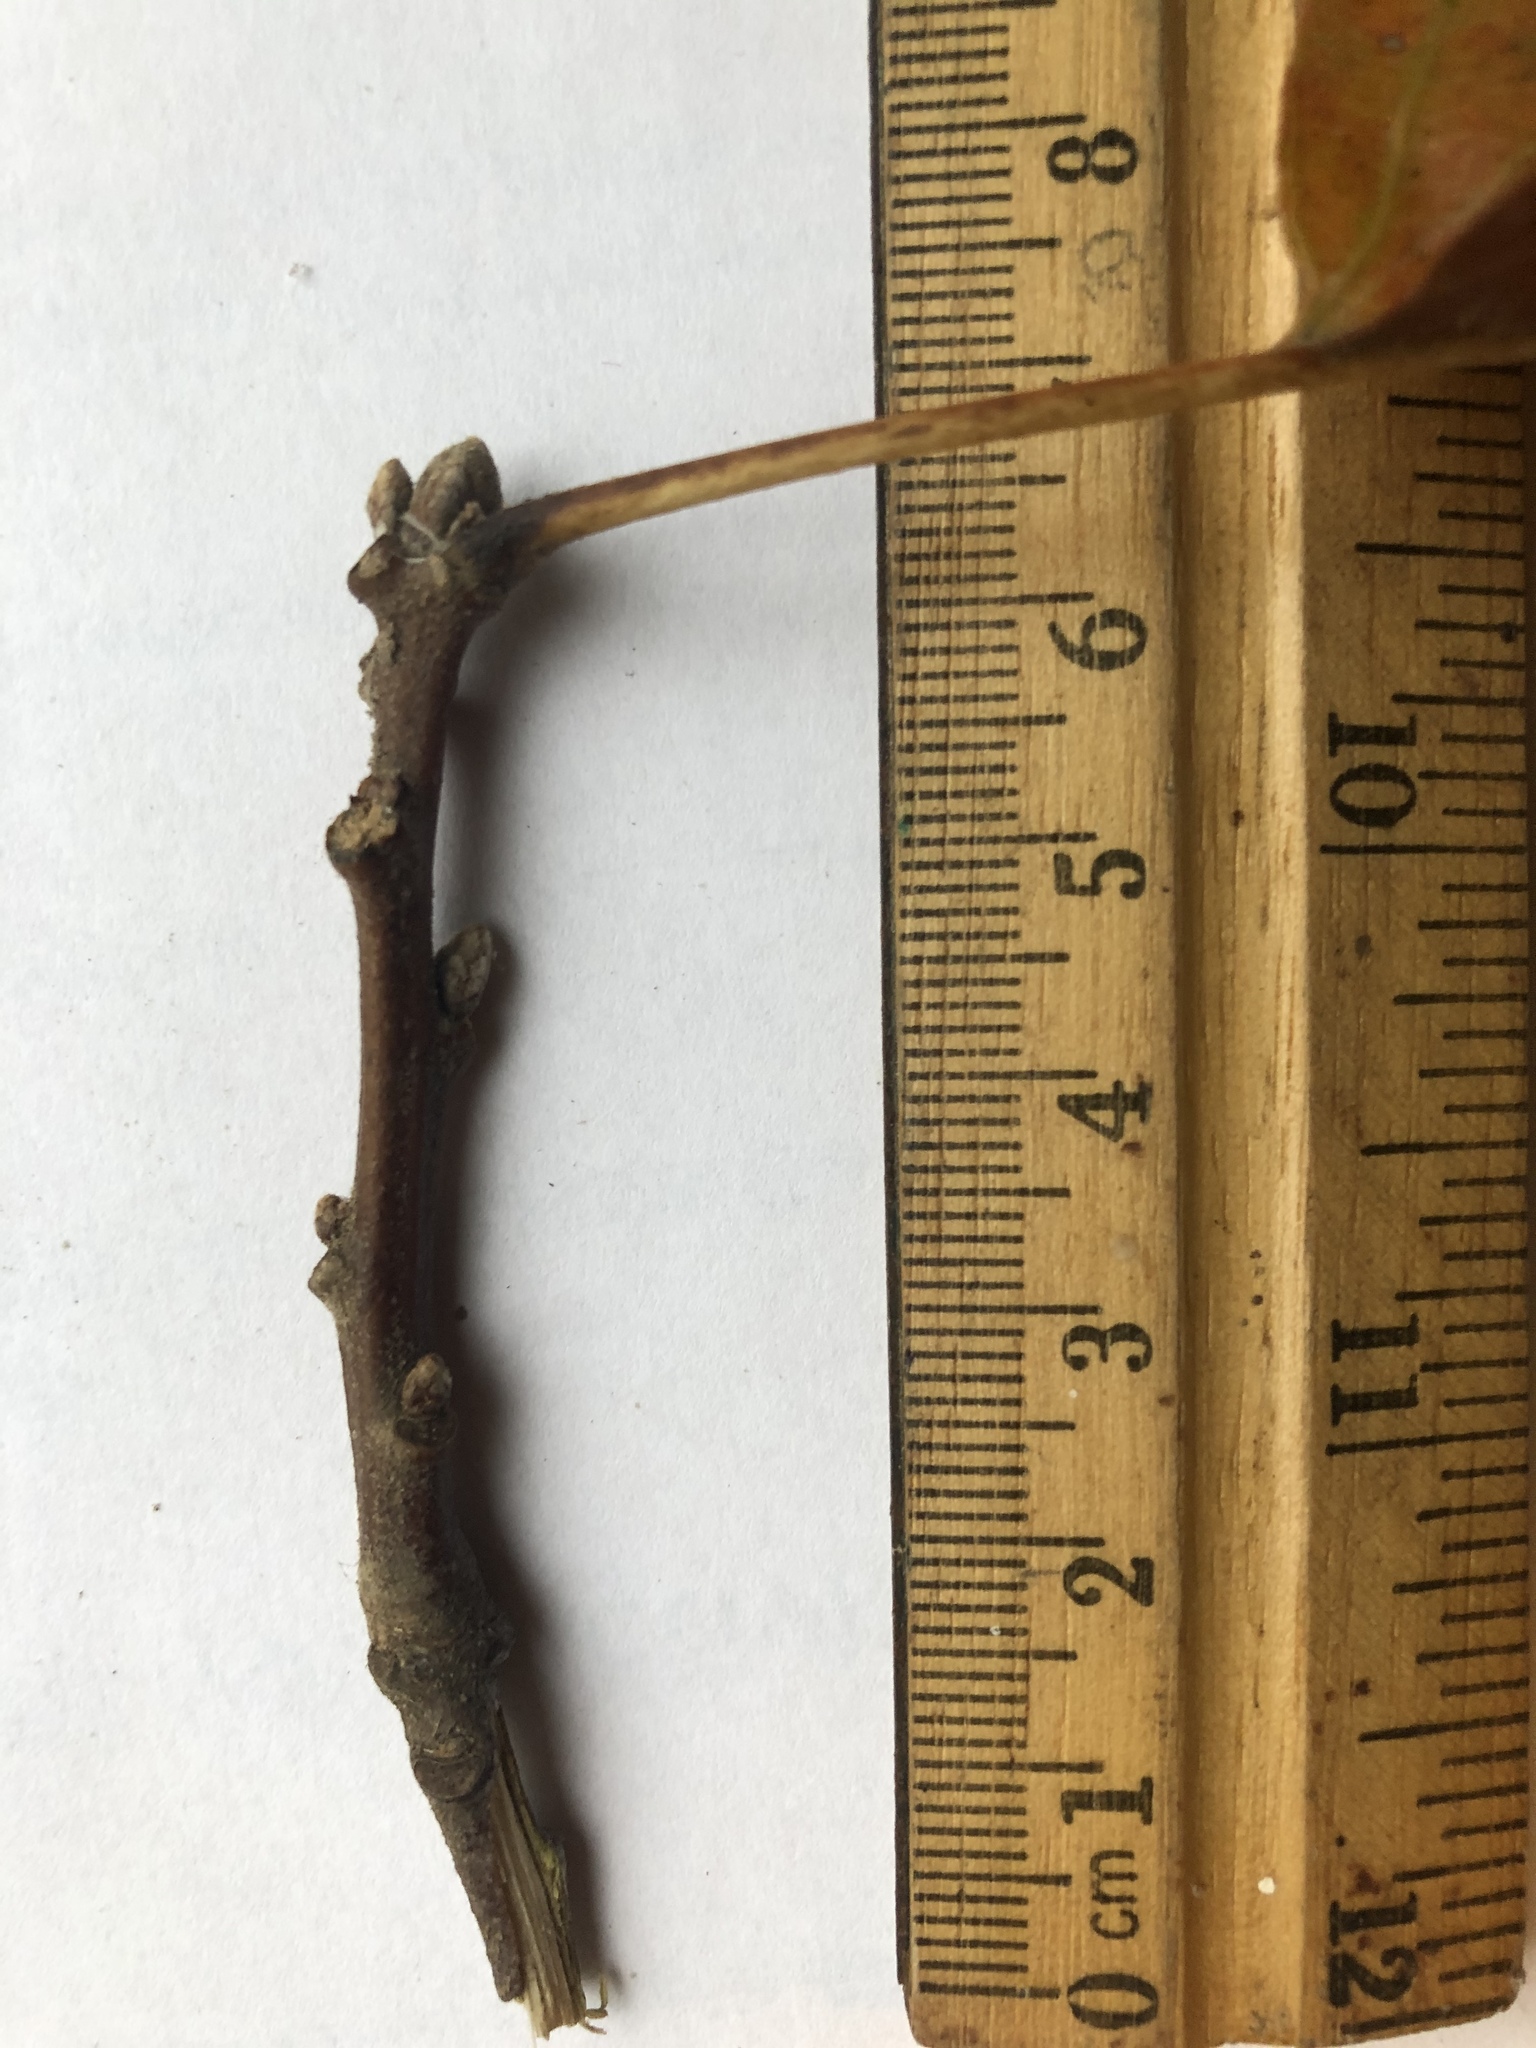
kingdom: Plantae
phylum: Tracheophyta
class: Magnoliopsida
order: Fagales
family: Fagaceae
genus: Quercus
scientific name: Quercus velutina
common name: Black oak
